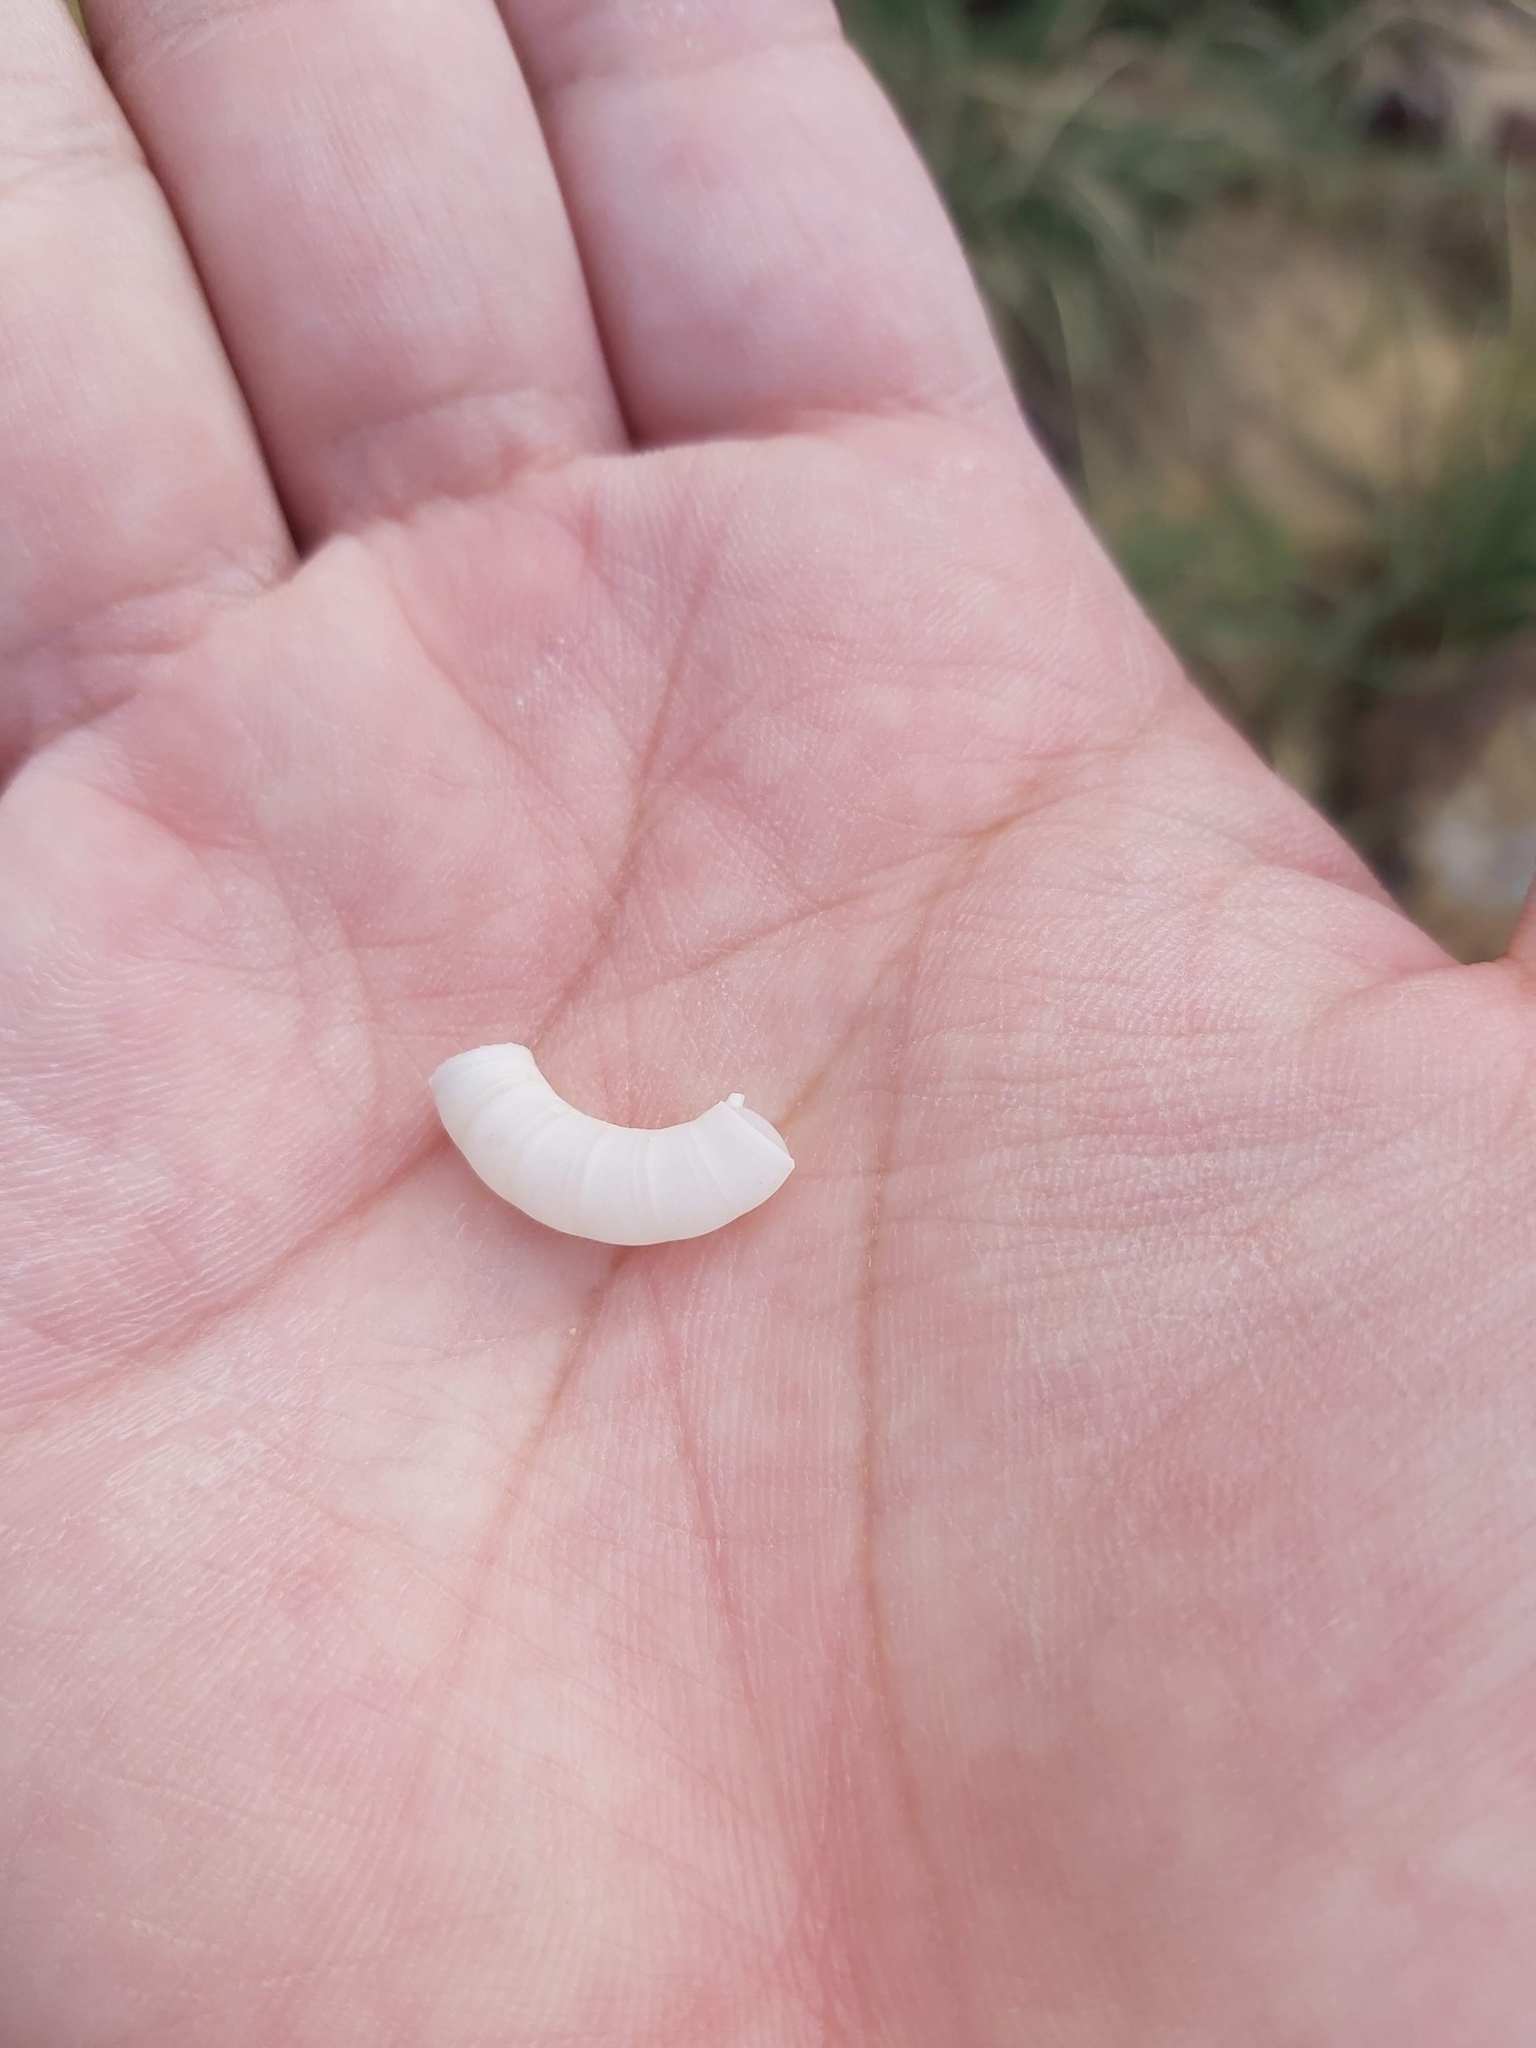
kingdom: Animalia
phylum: Mollusca
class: Cephalopoda
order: Spirulida
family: Spirulidae
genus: Spirula
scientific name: Spirula spirula
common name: Ram's horn squid
